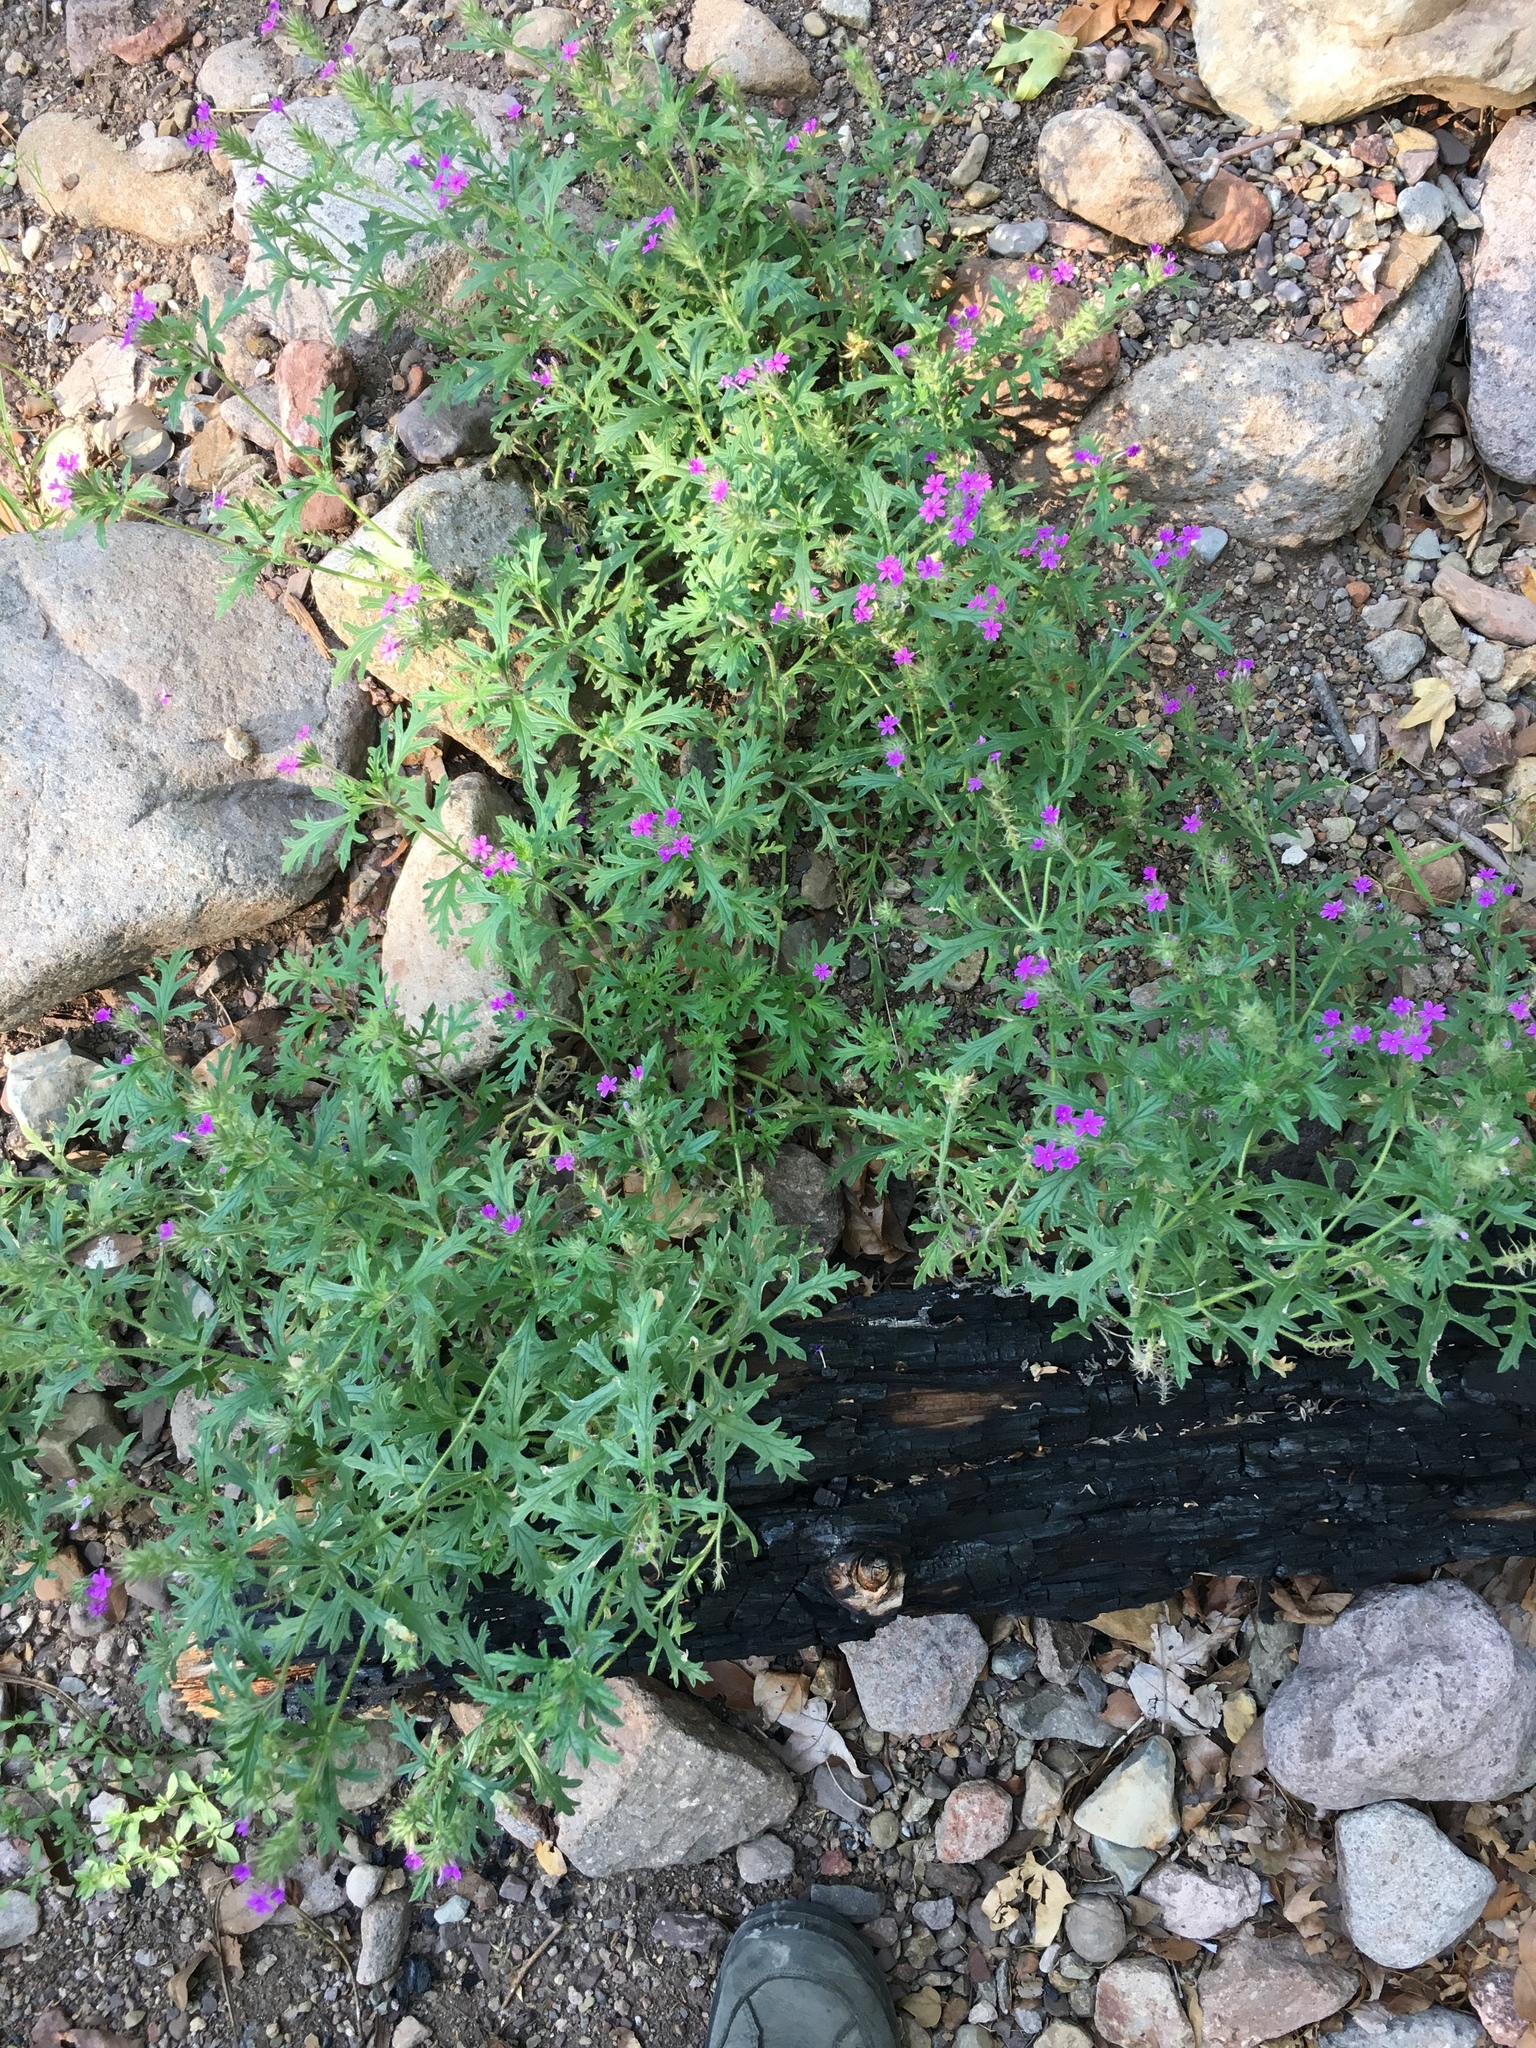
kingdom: Plantae
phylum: Tracheophyta
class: Magnoliopsida
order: Lamiales
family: Verbenaceae
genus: Verbena
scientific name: Verbena chiricahensis
